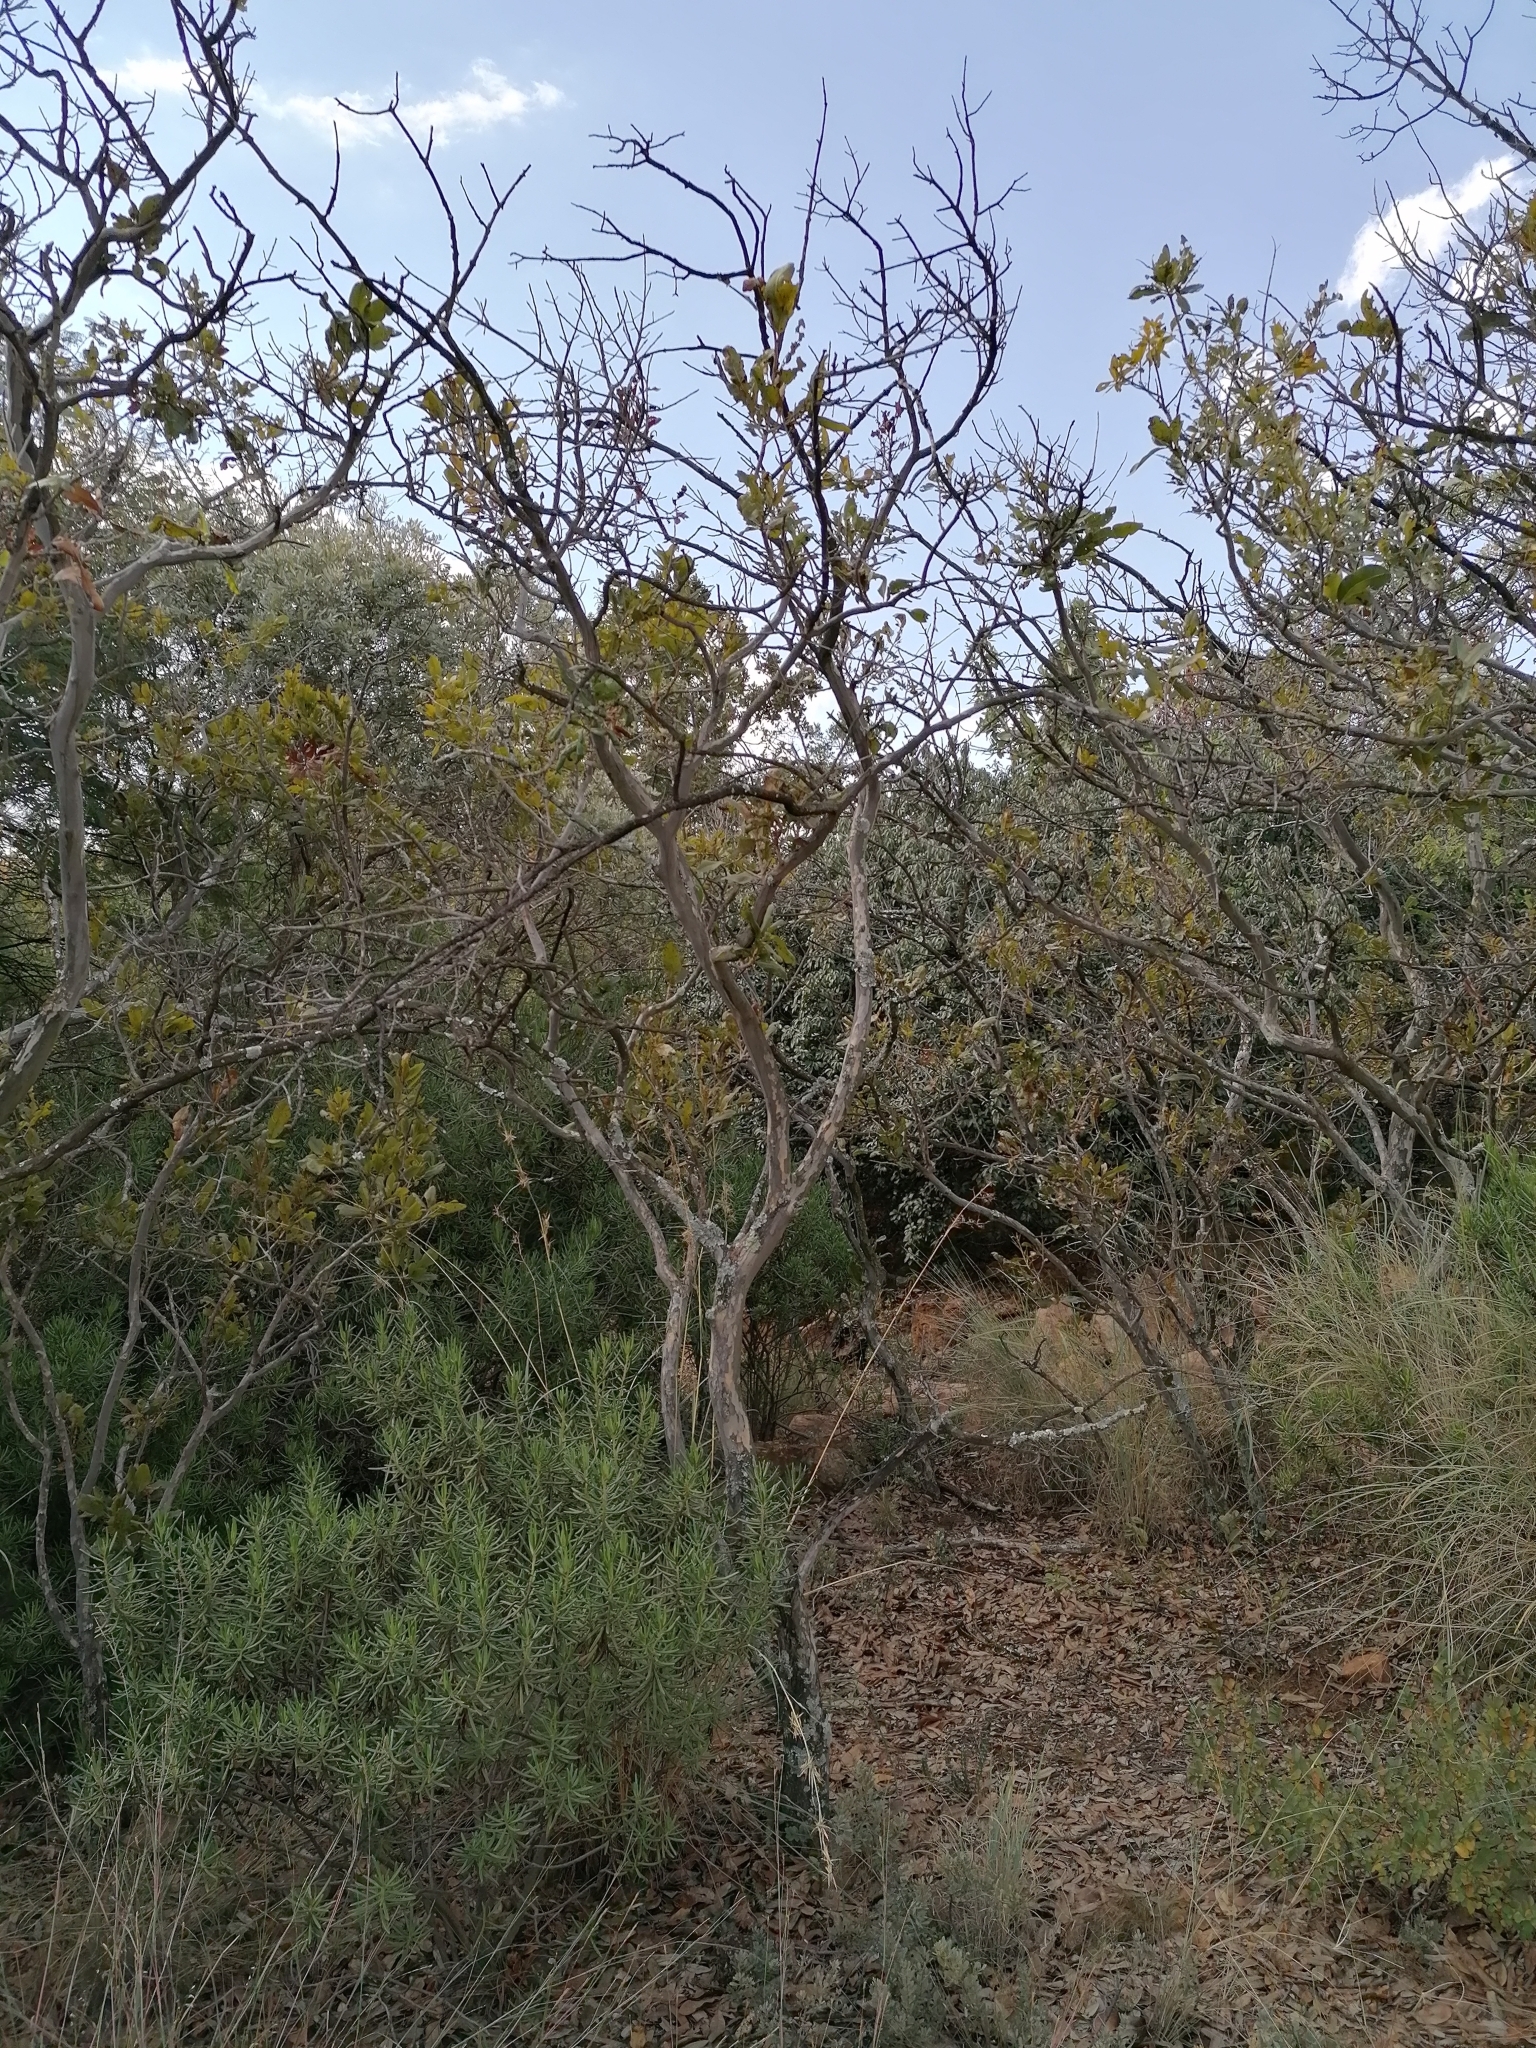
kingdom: Plantae
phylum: Tracheophyta
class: Magnoliopsida
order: Malpighiales
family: Ochnaceae
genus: Ochna
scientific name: Ochna pulchra
